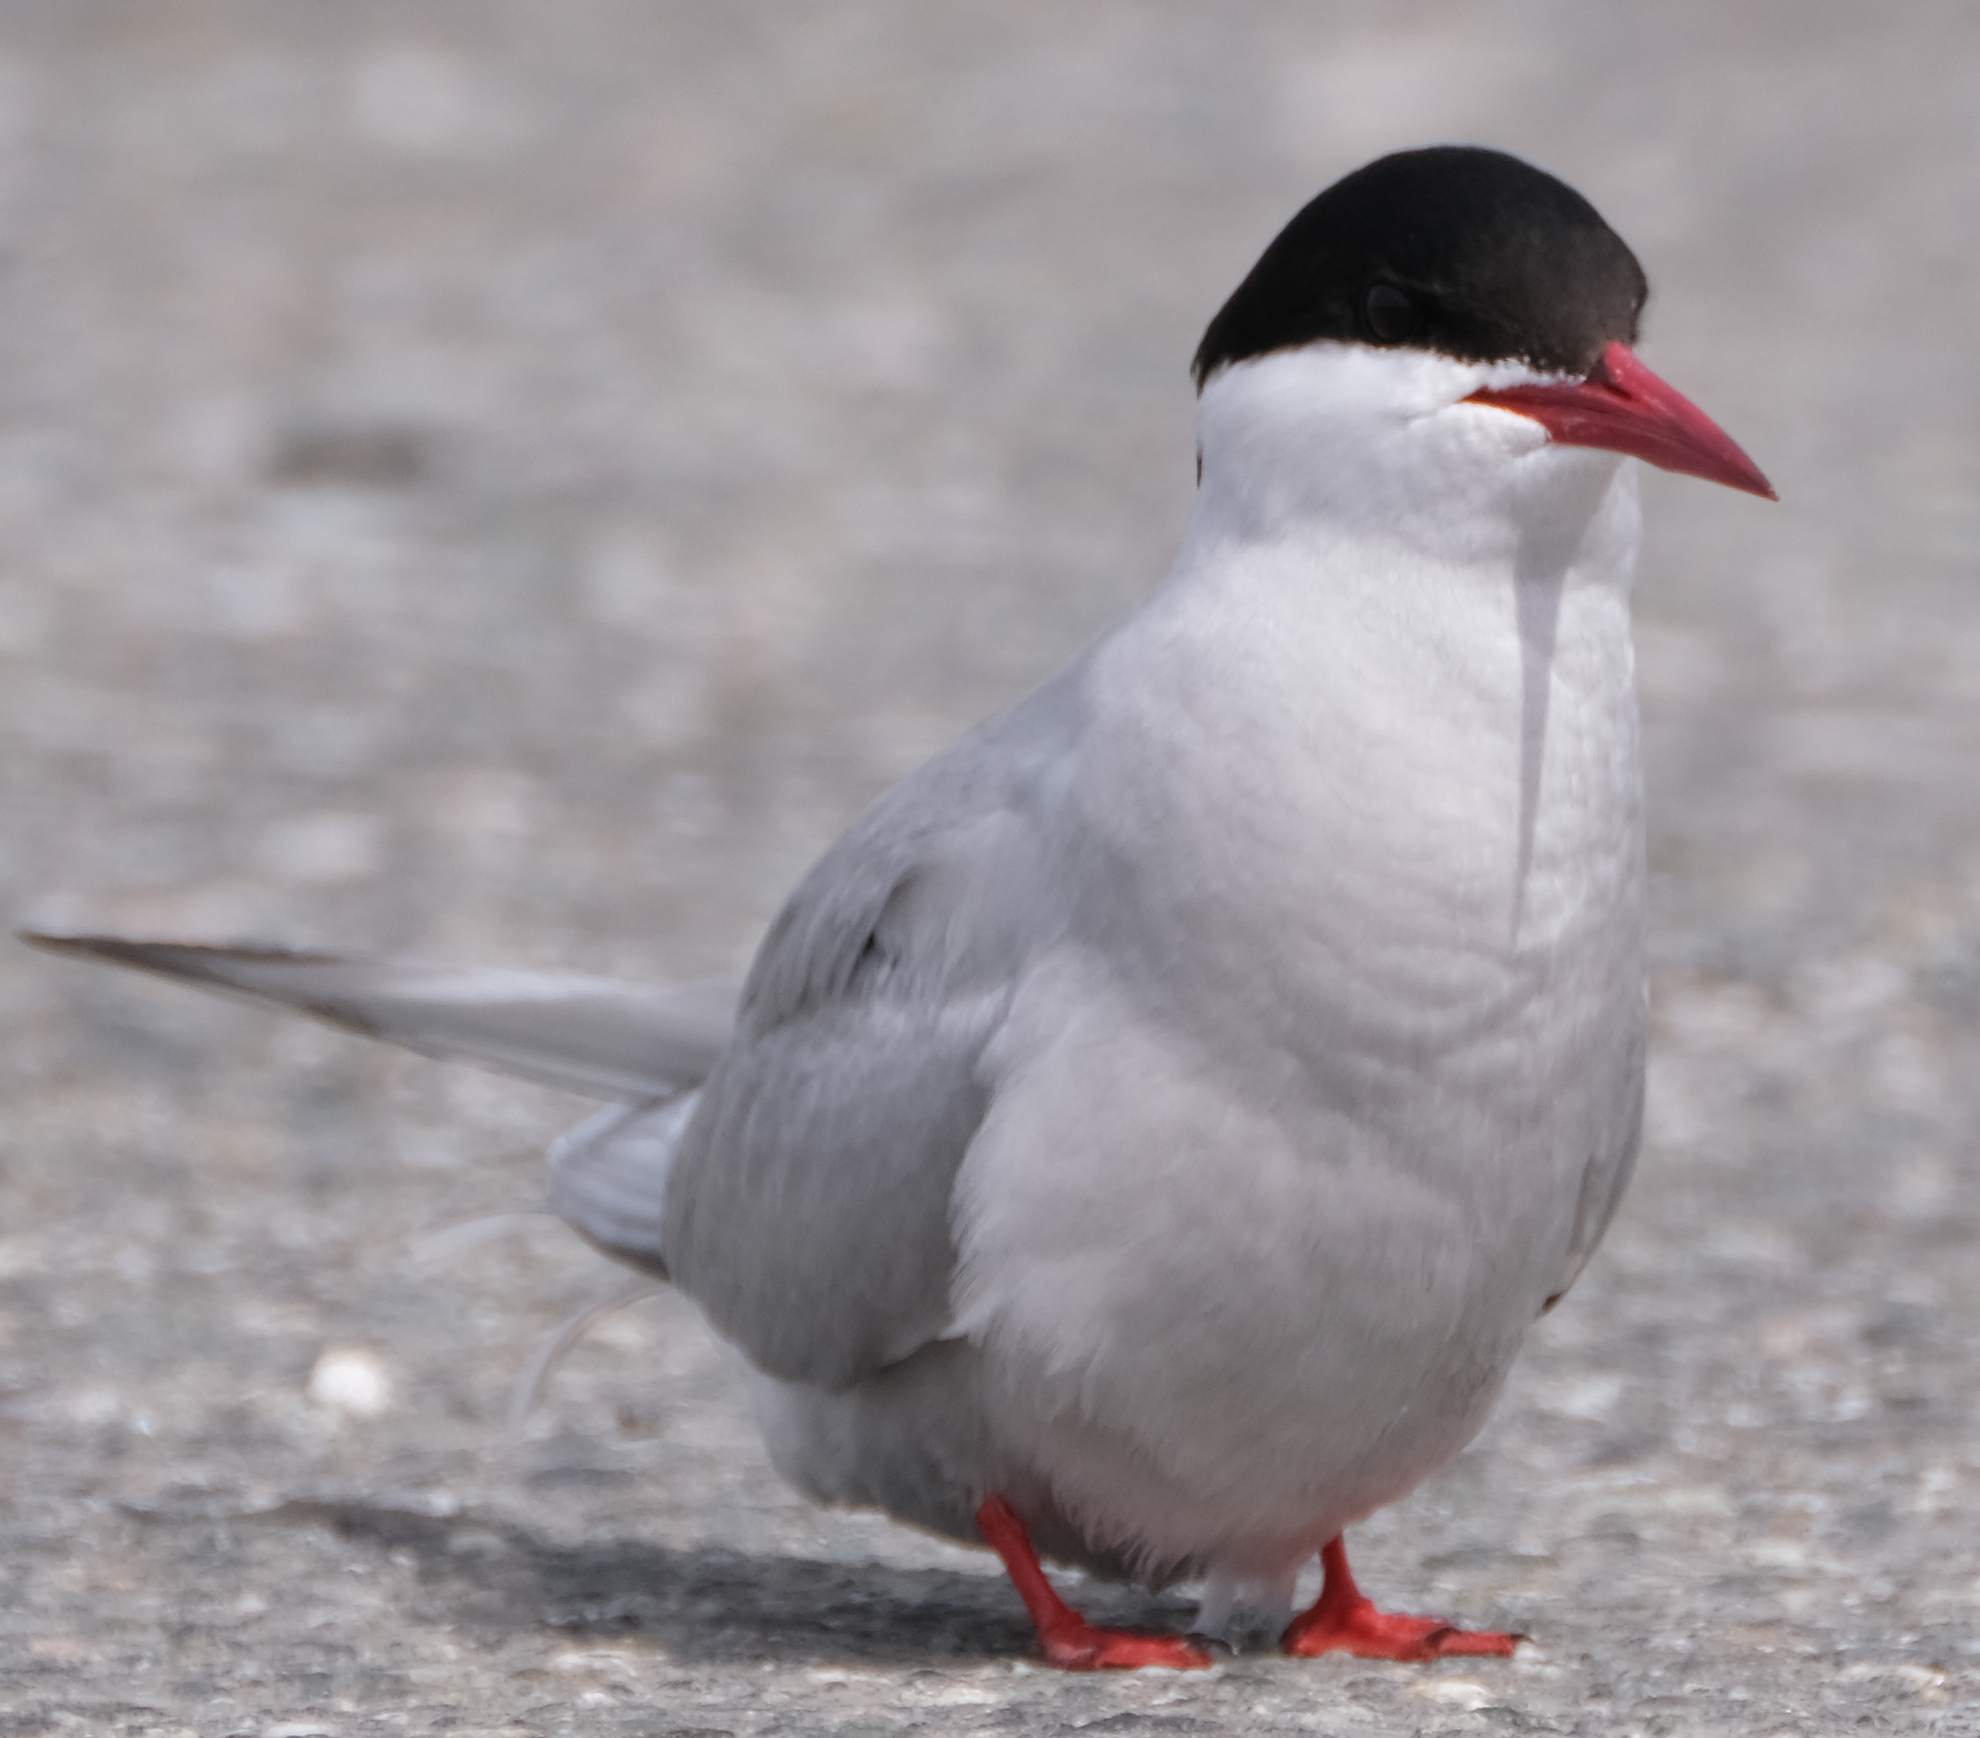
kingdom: Animalia
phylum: Chordata
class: Aves
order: Charadriiformes
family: Laridae
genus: Sterna
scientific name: Sterna paradisaea
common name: Arctic tern
